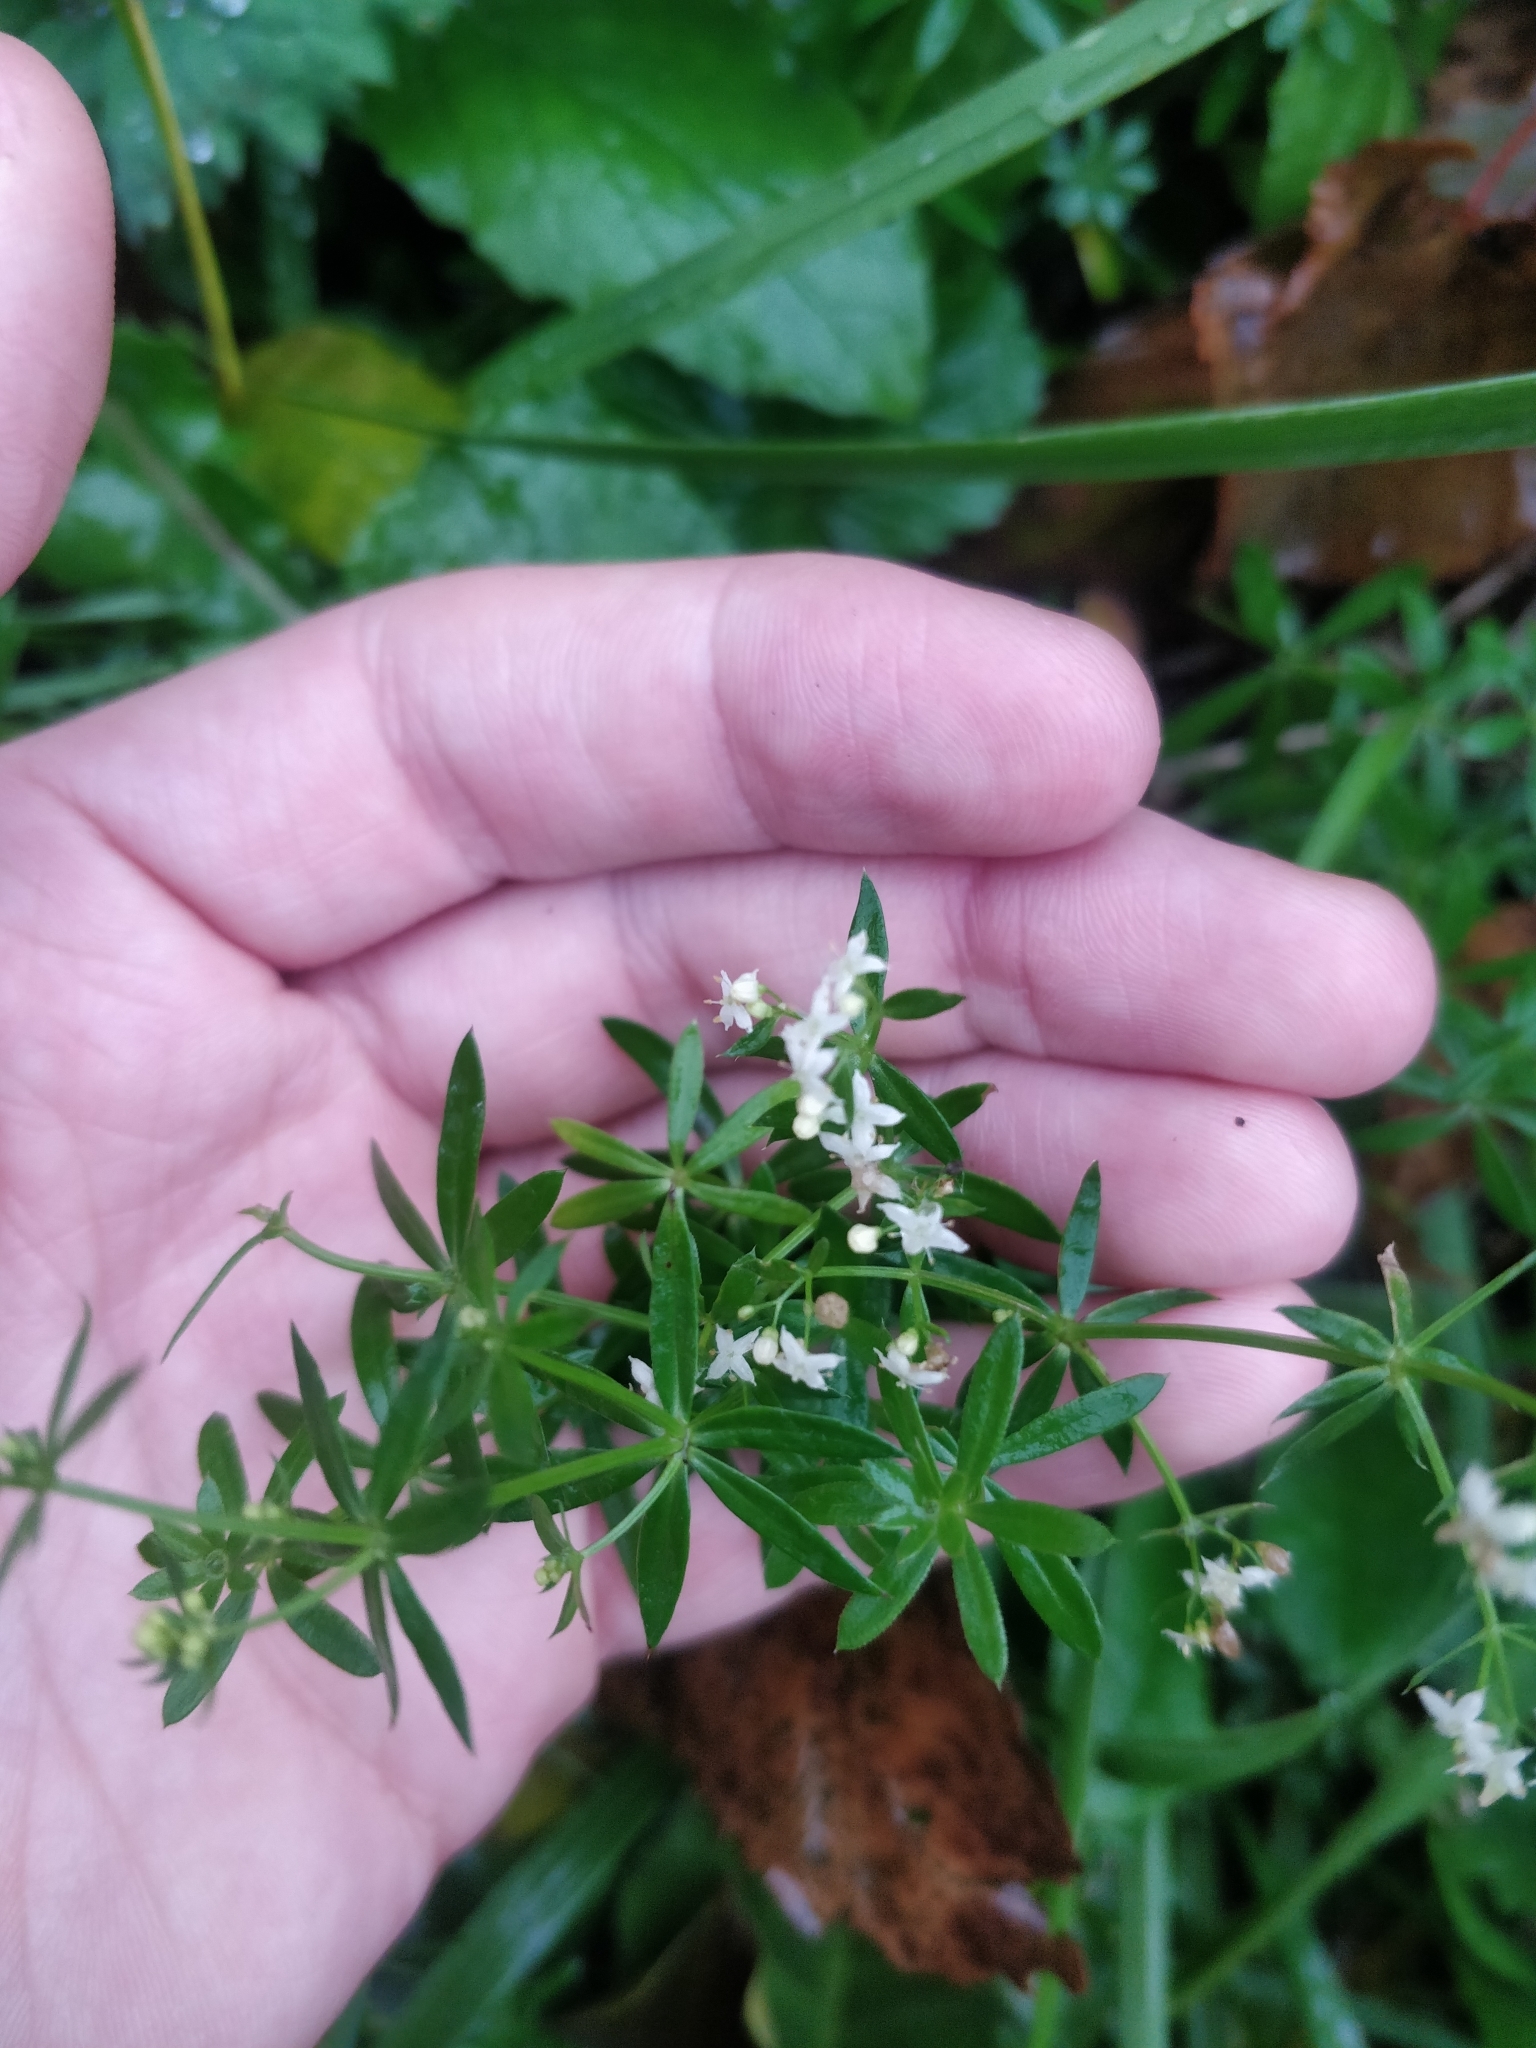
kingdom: Plantae
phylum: Tracheophyta
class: Magnoliopsida
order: Gentianales
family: Rubiaceae
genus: Galium
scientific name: Galium mollugo
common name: Hedge bedstraw
